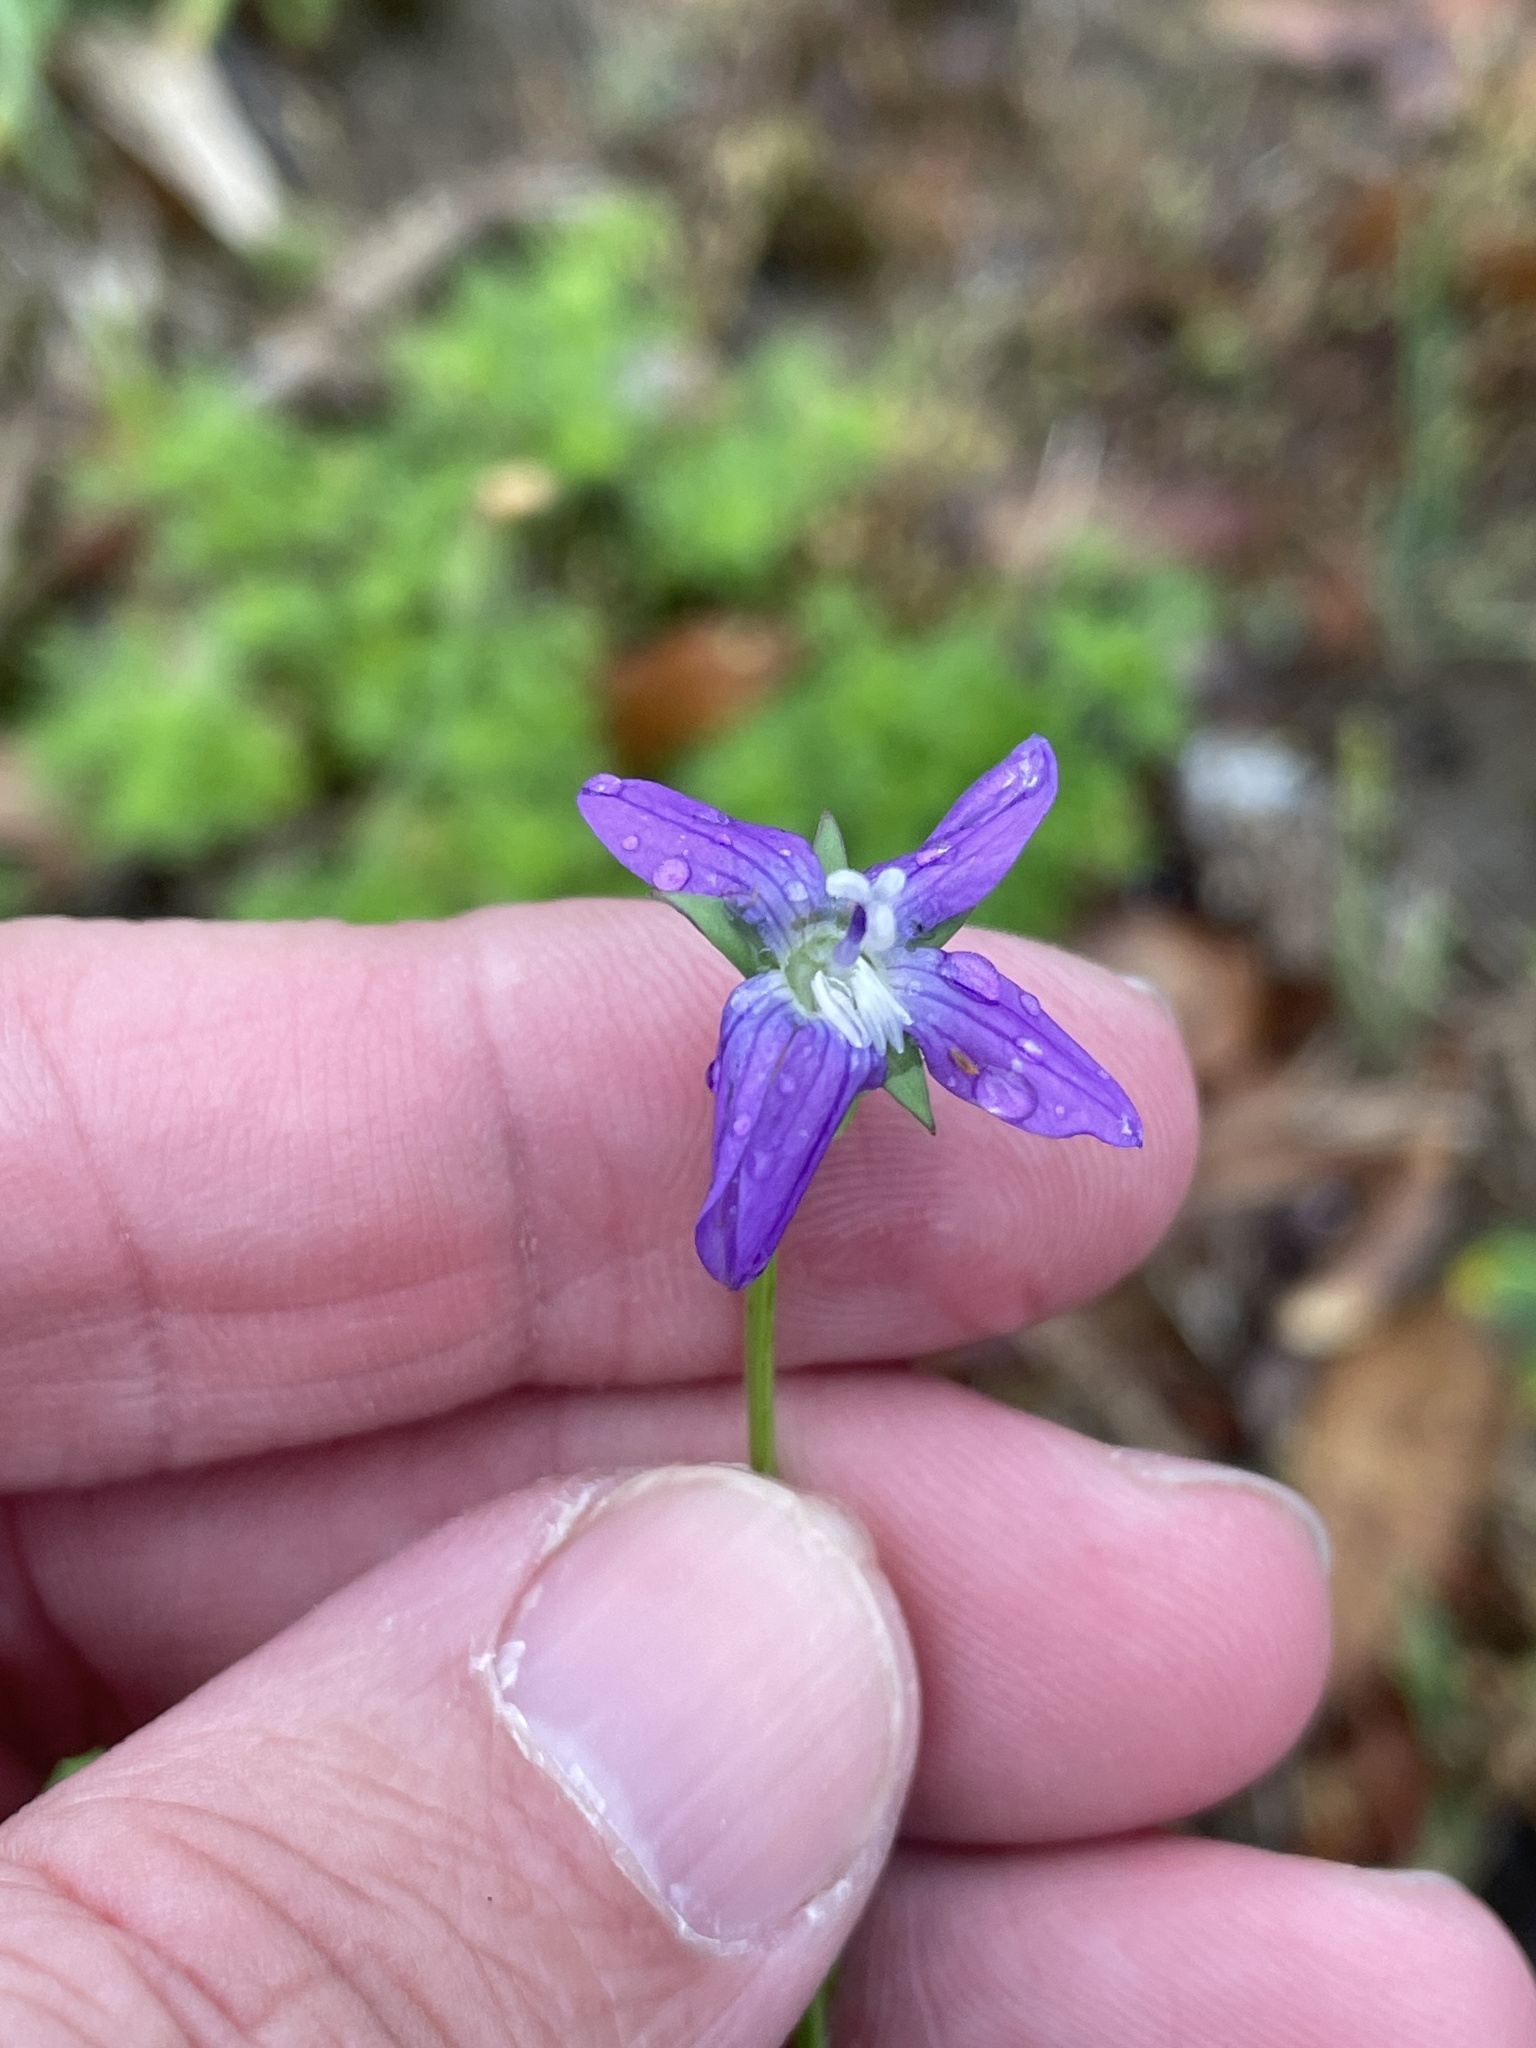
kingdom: Plantae
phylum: Tracheophyta
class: Magnoliopsida
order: Asterales
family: Campanulaceae
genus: Triodanis
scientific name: Triodanis biflora
